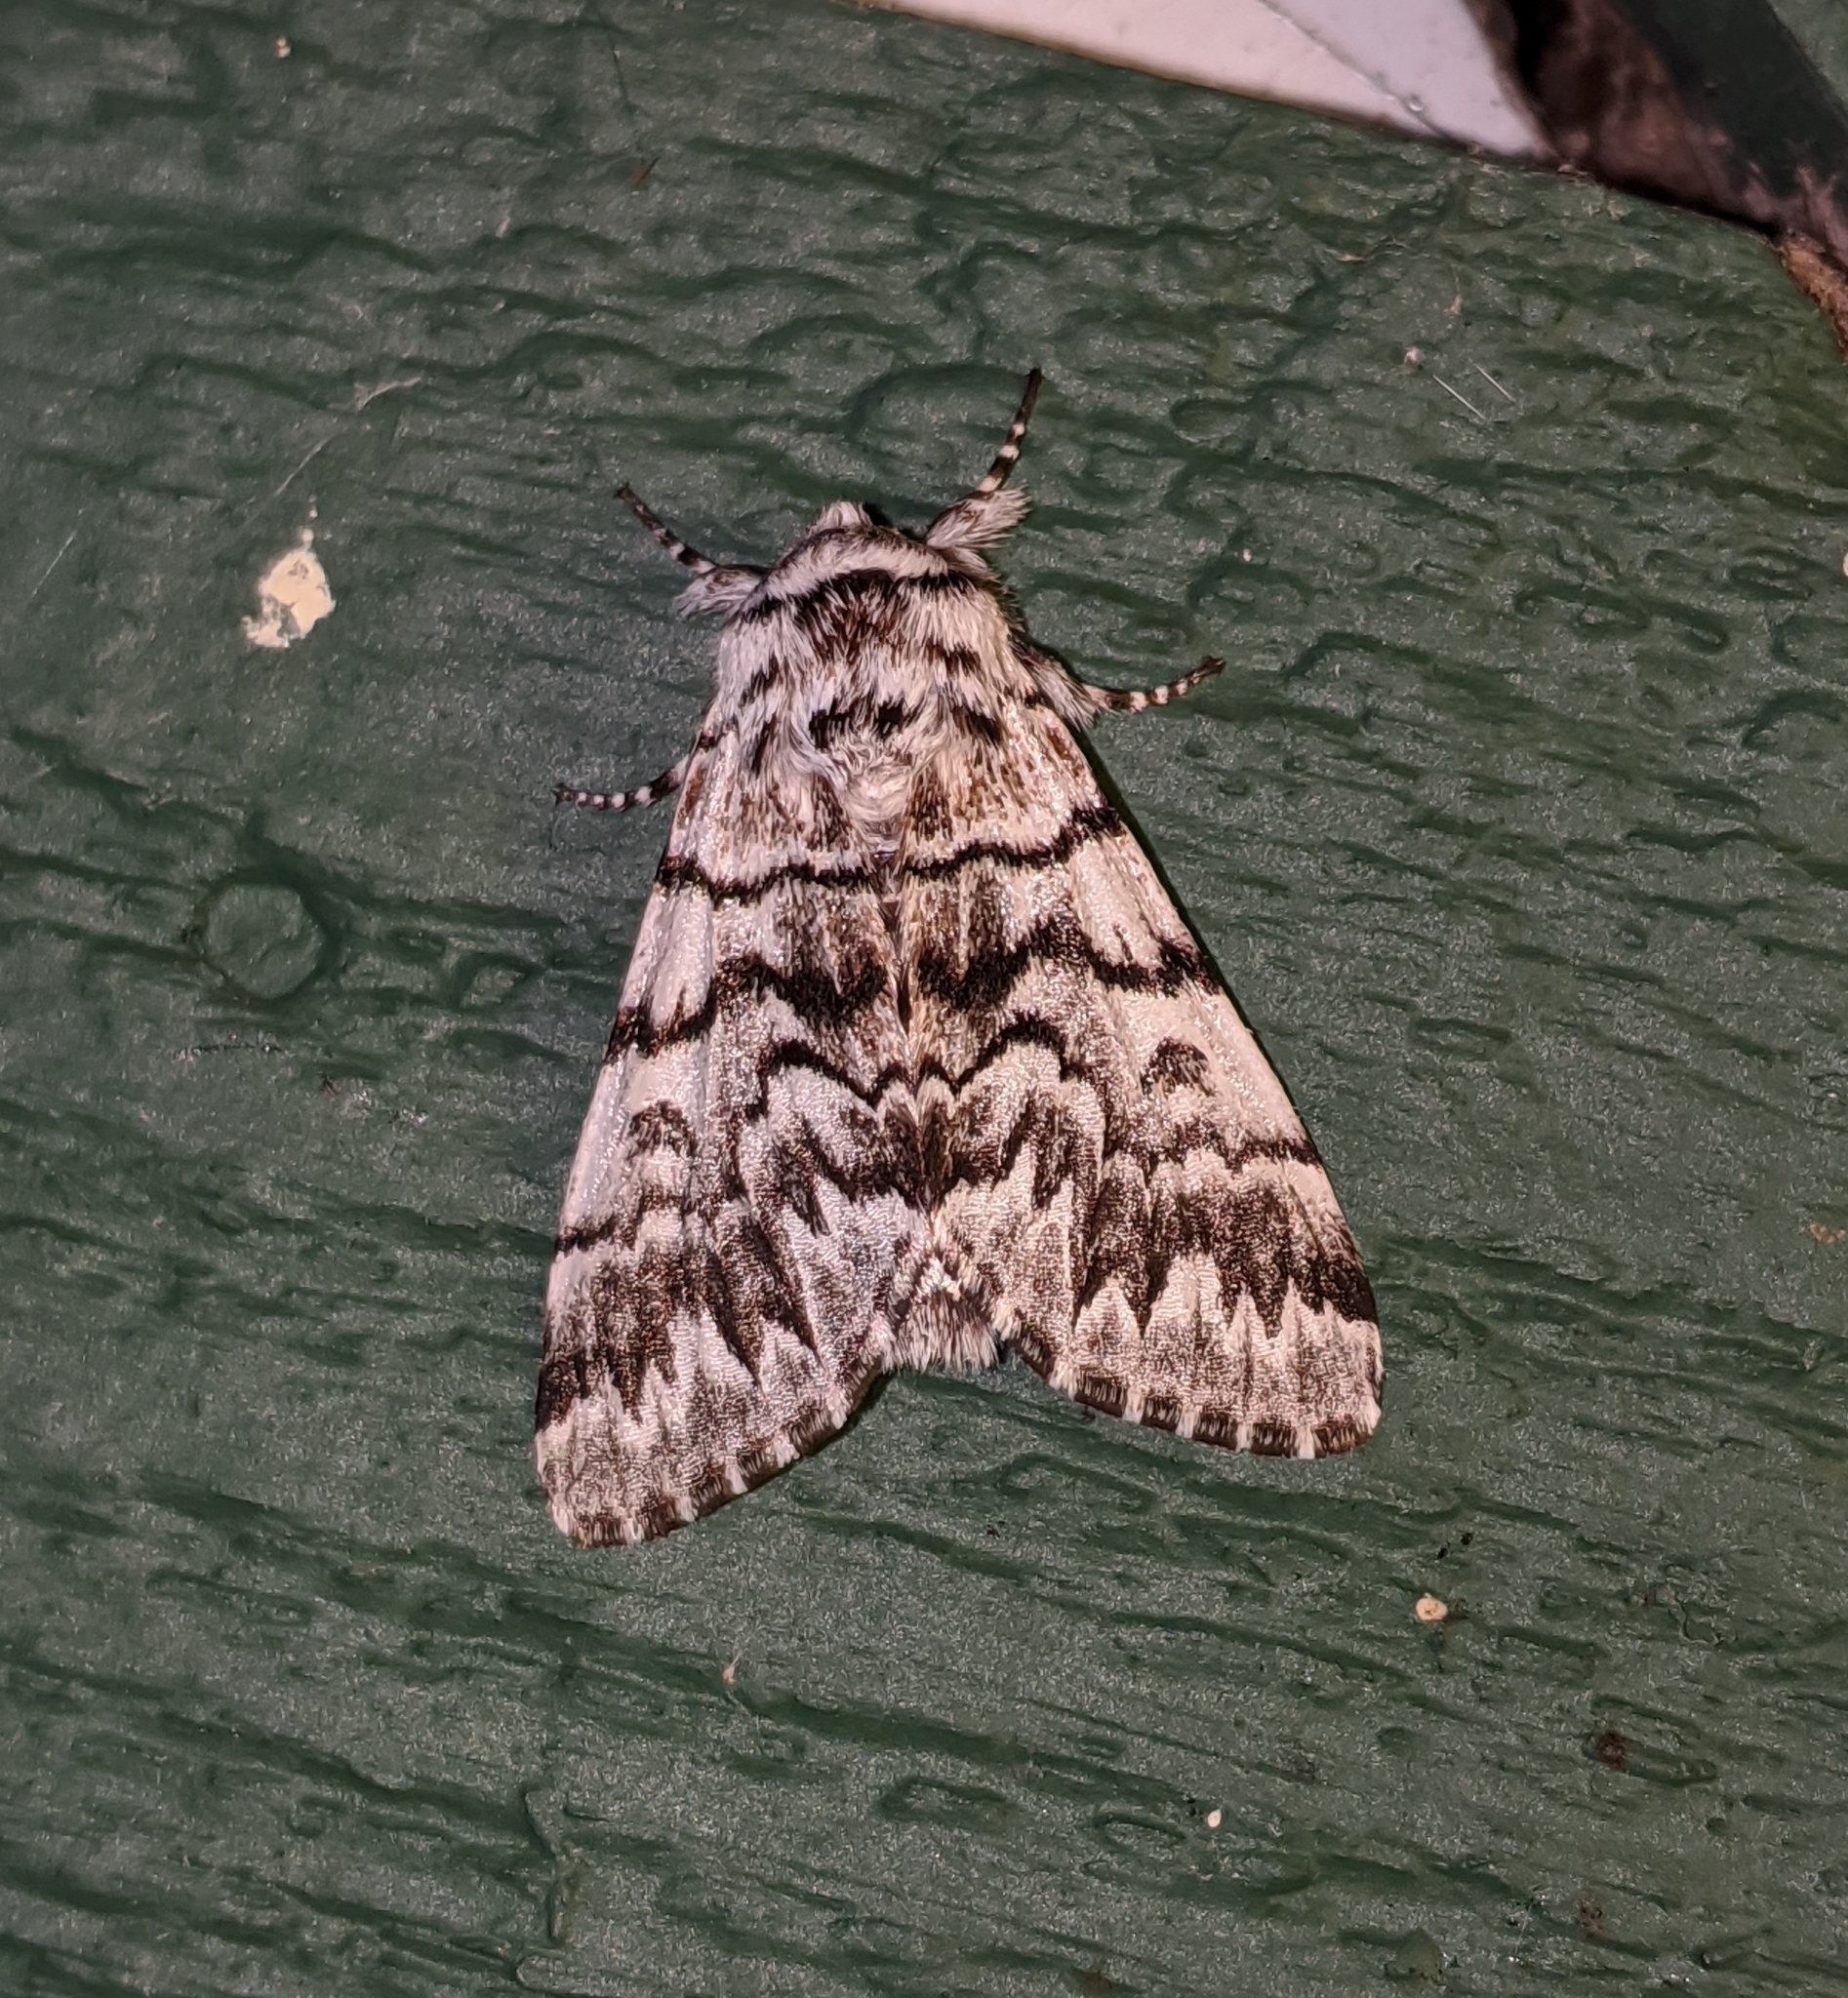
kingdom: Animalia
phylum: Arthropoda
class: Insecta
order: Lepidoptera
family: Noctuidae
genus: Panthea
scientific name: Panthea virginarius
